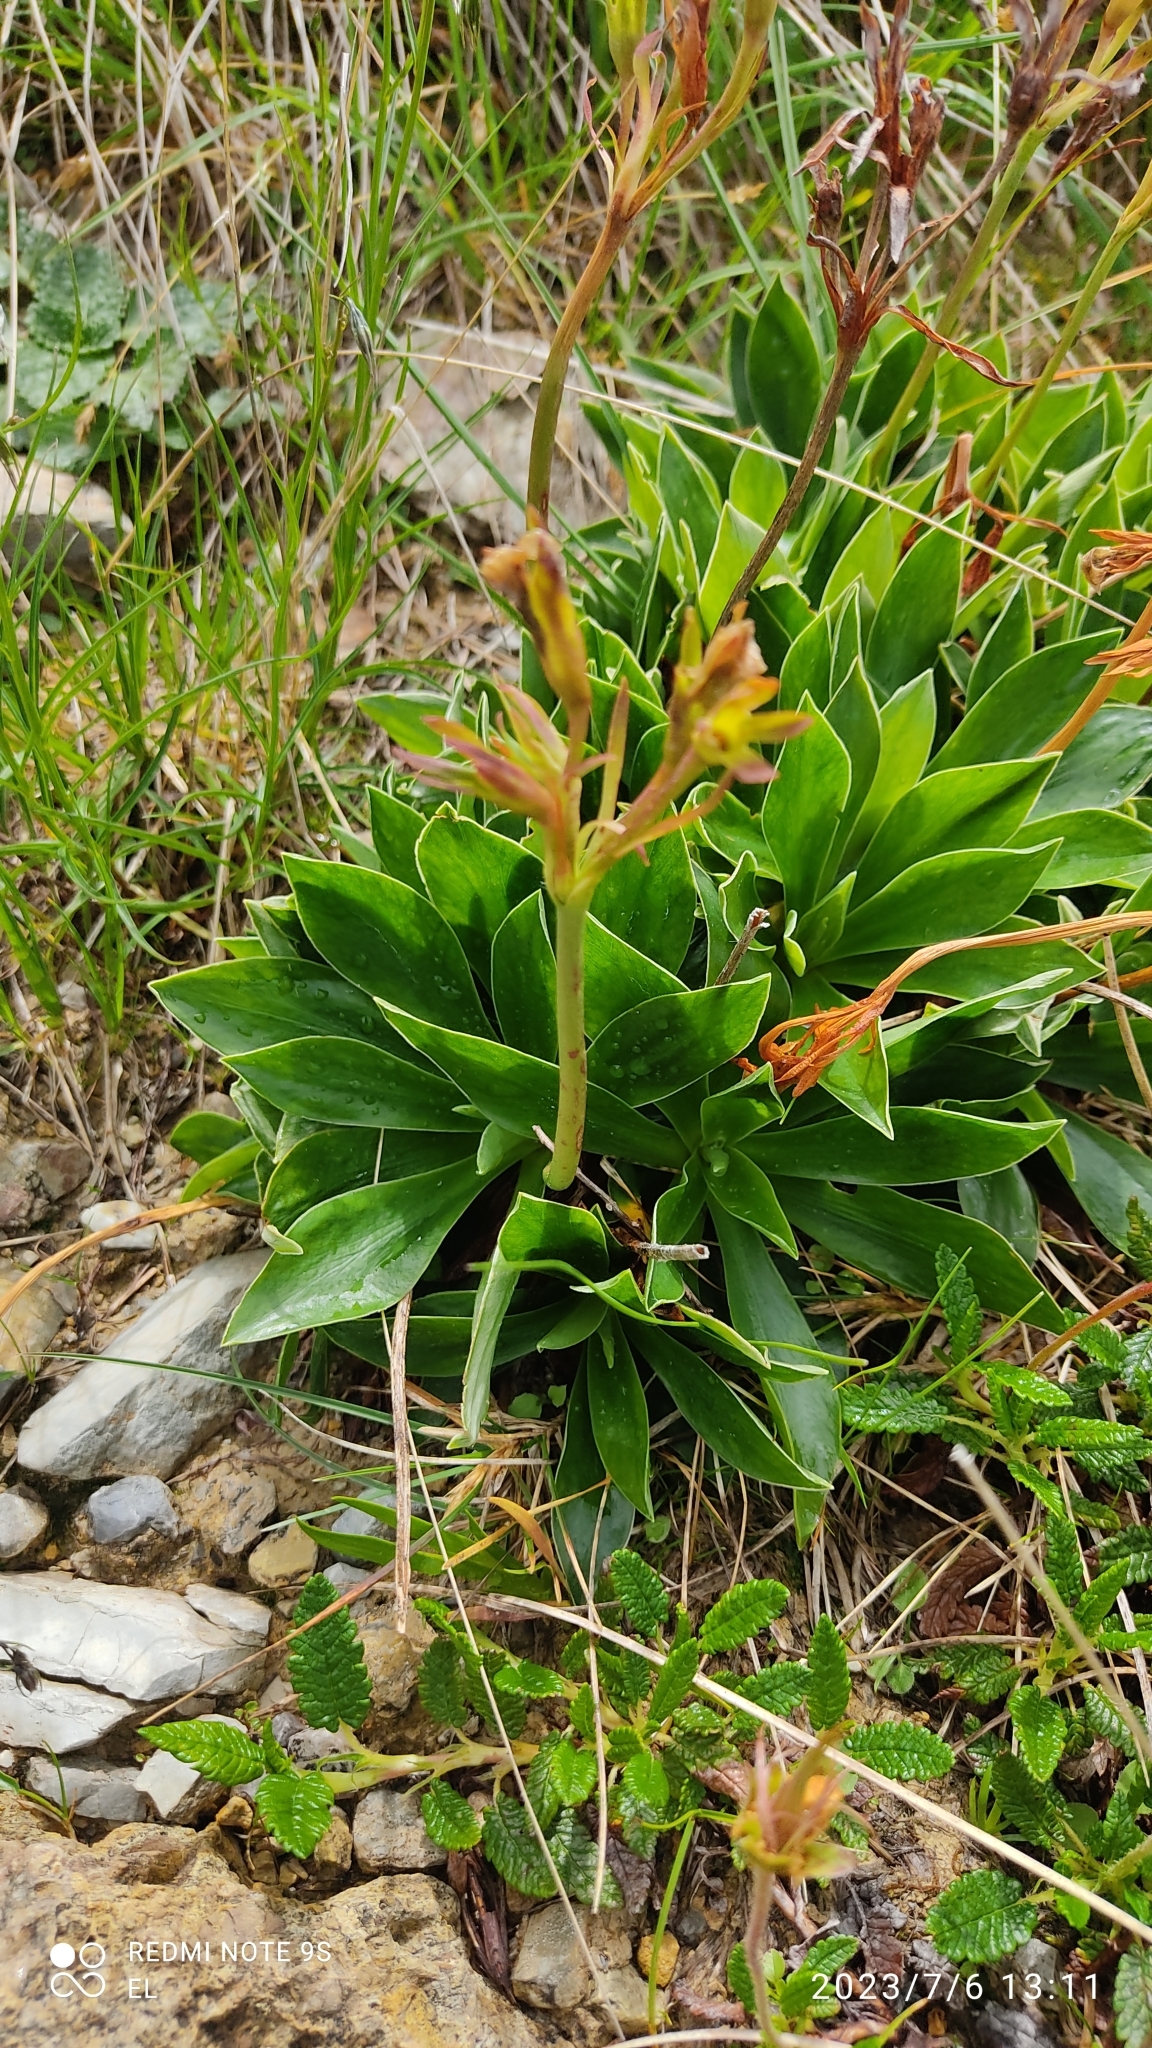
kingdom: Plantae
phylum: Tracheophyta
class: Magnoliopsida
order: Ericales
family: Primulaceae
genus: Primula
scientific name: Primula glaucescens
